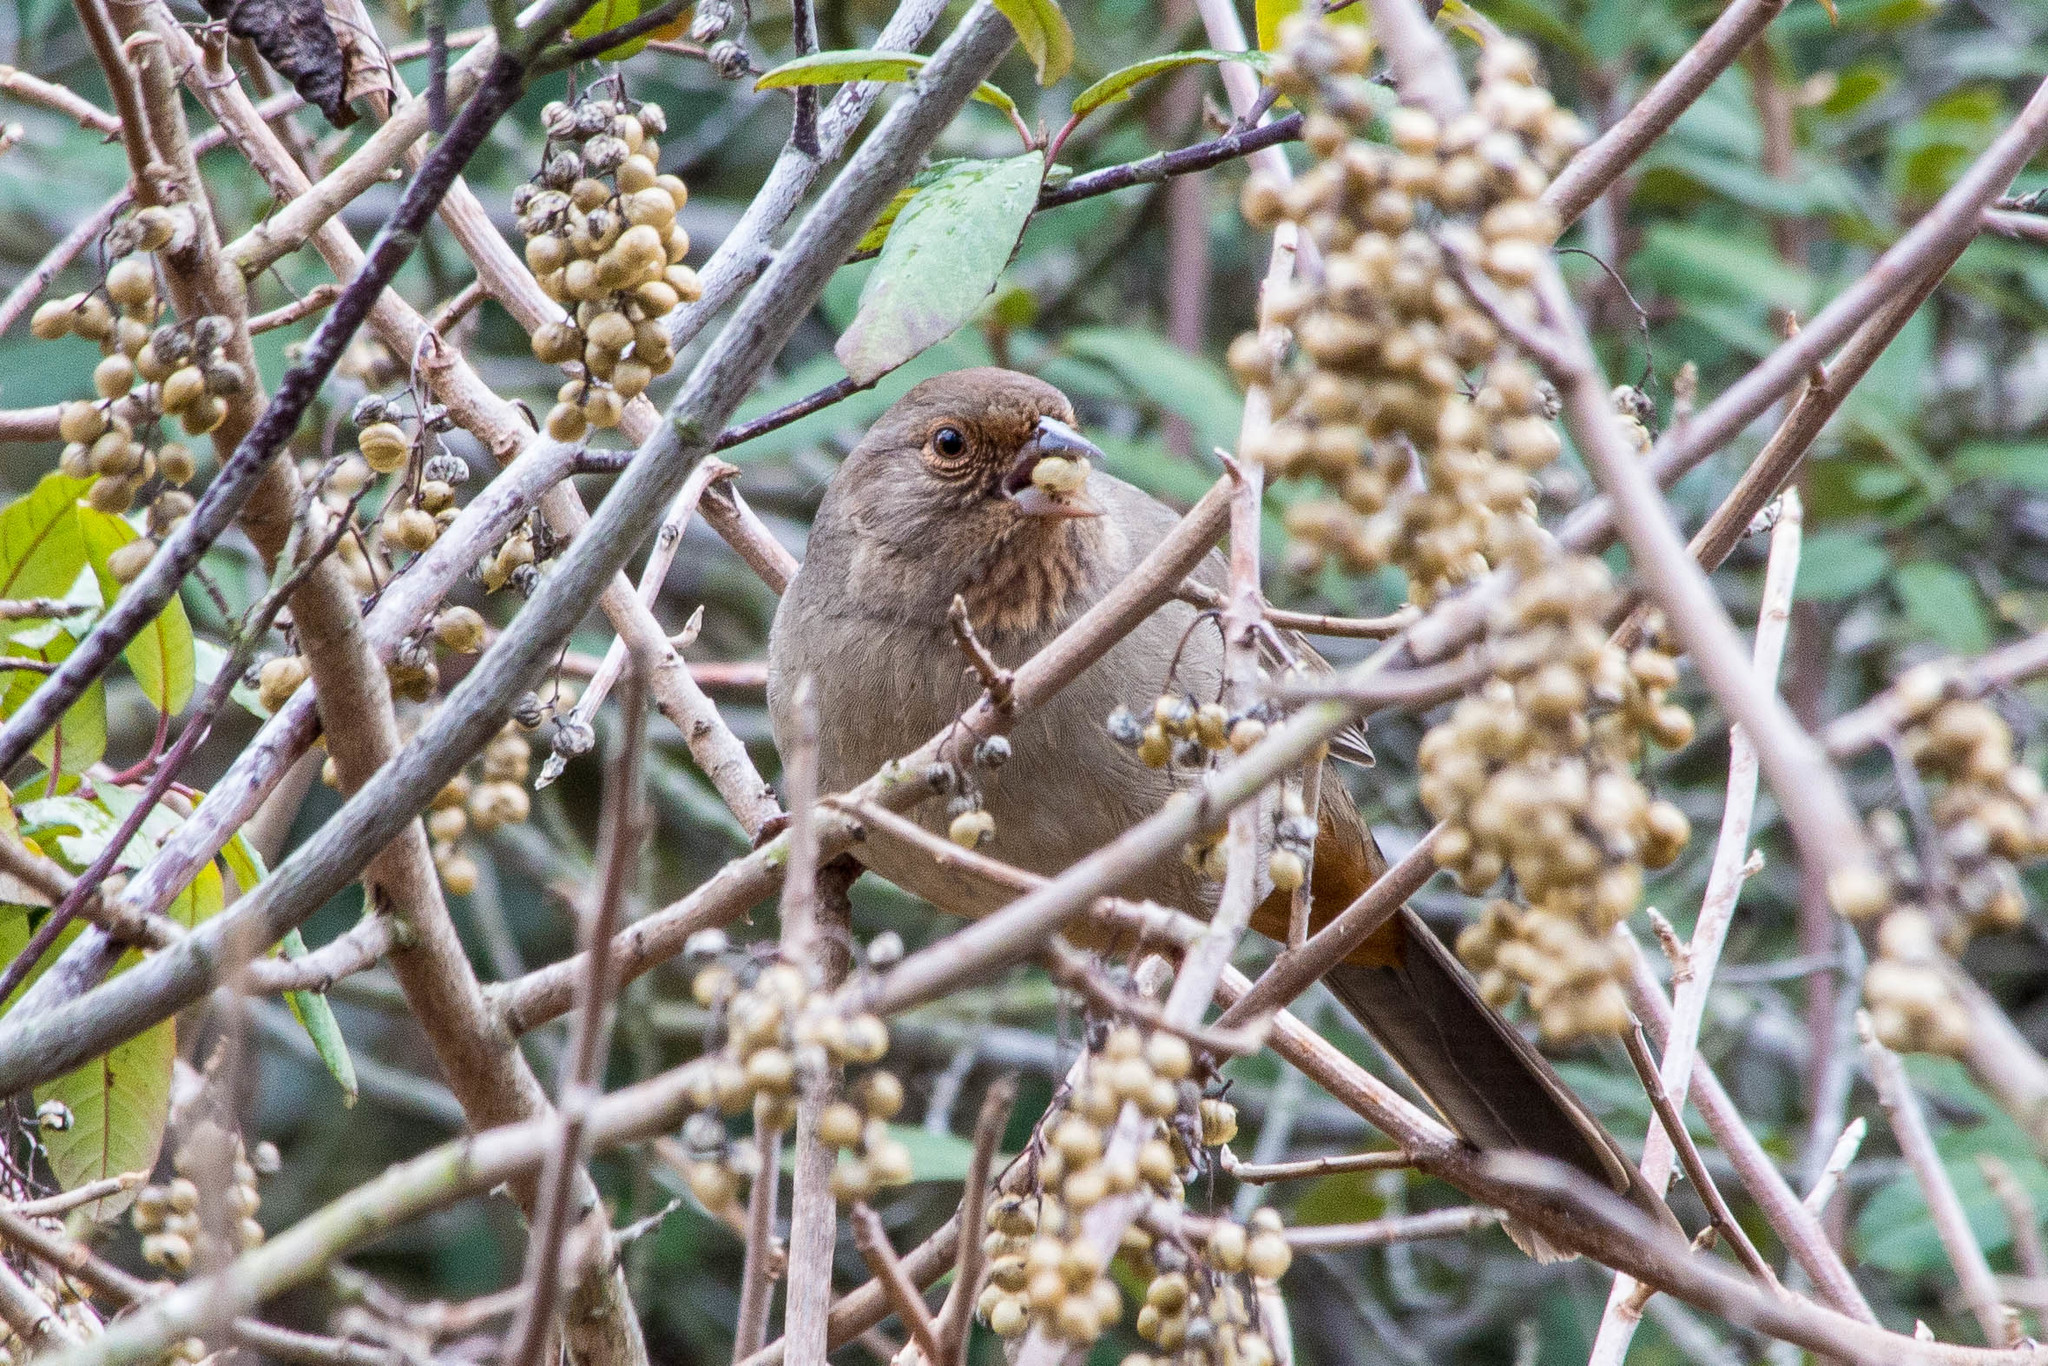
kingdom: Animalia
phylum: Chordata
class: Aves
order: Passeriformes
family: Passerellidae
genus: Melozone
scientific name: Melozone crissalis
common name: California towhee
